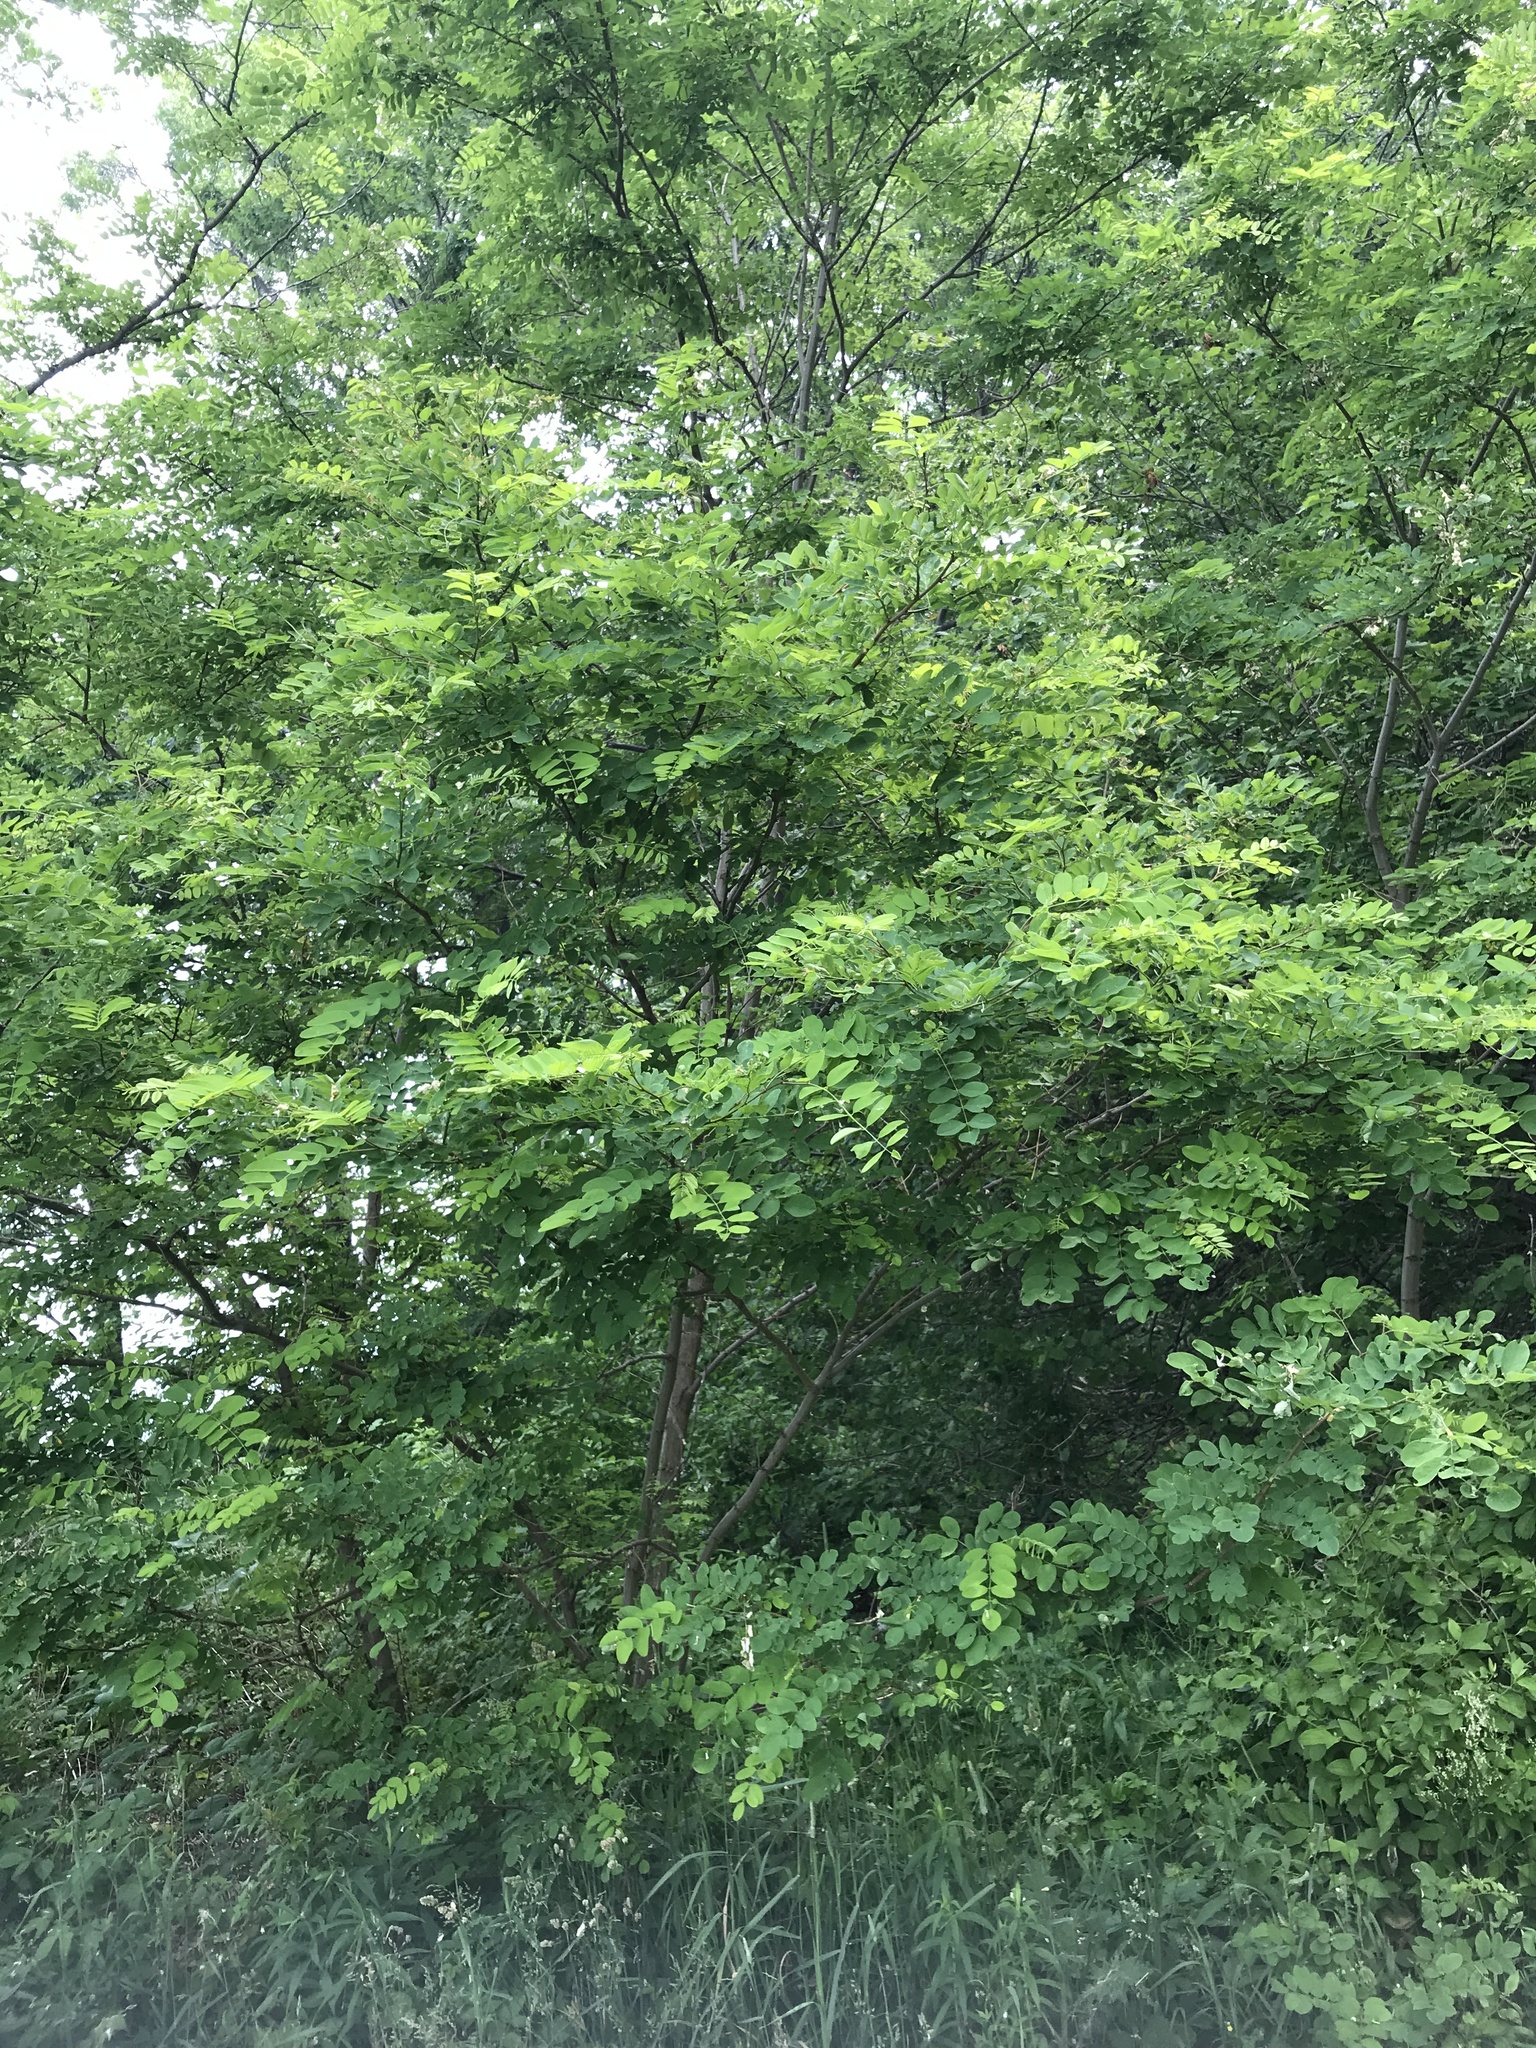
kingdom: Plantae
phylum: Tracheophyta
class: Magnoliopsida
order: Fabales
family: Fabaceae
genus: Robinia
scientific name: Robinia pseudoacacia
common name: Black locust
